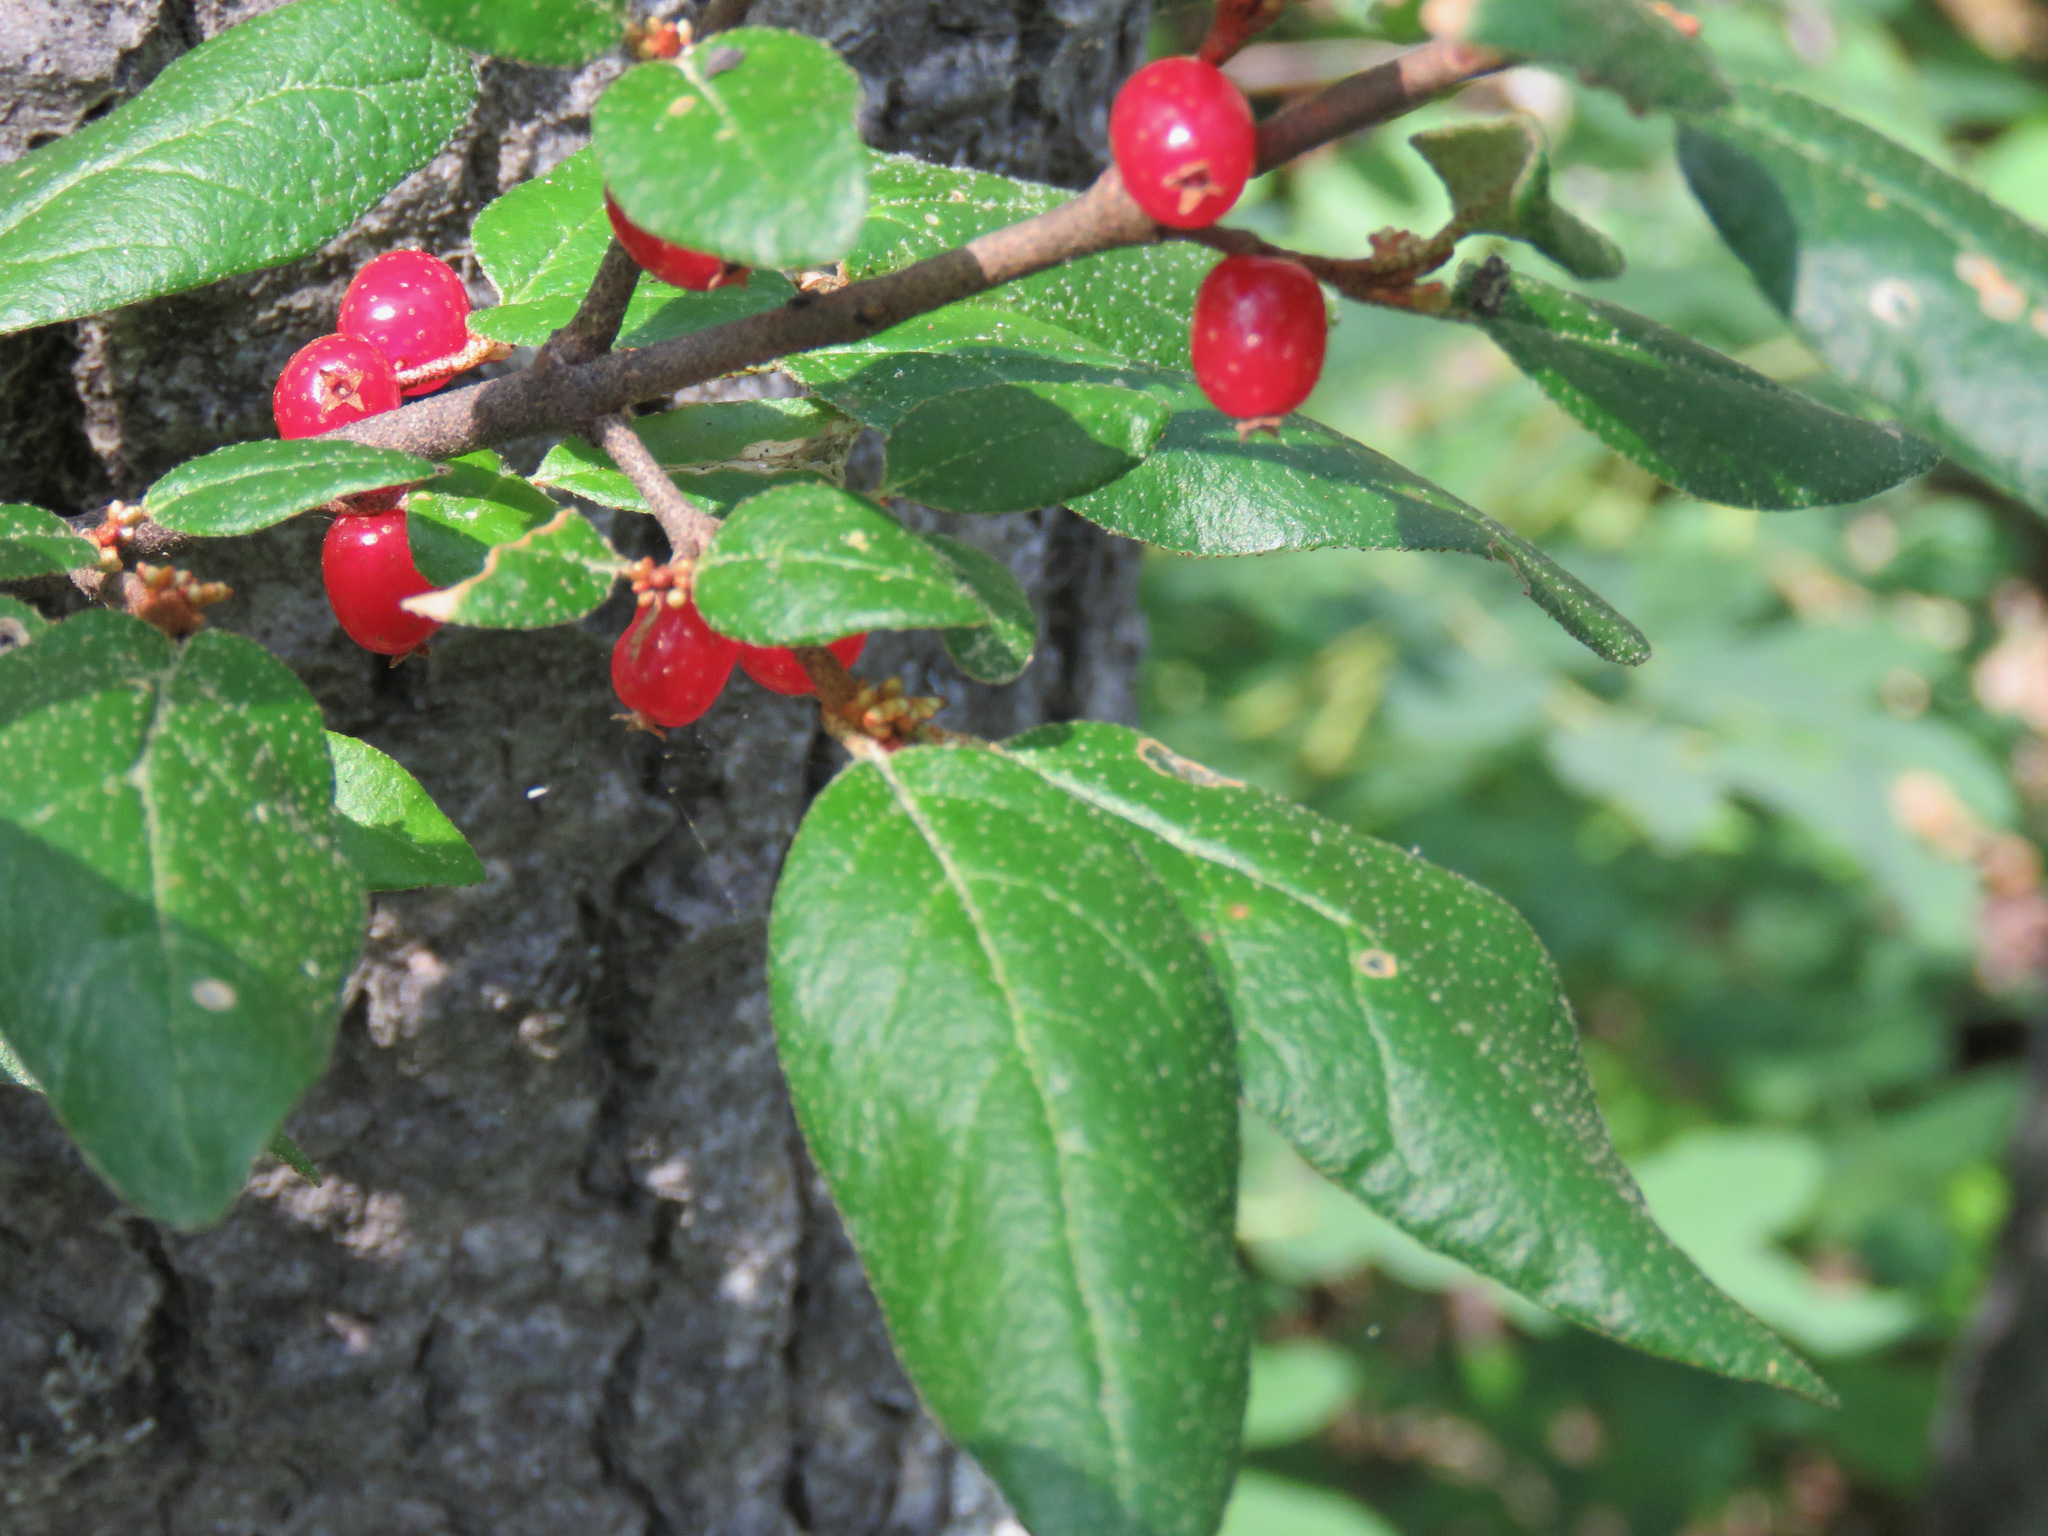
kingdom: Plantae
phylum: Tracheophyta
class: Magnoliopsida
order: Rosales
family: Elaeagnaceae
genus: Shepherdia
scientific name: Shepherdia canadensis
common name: Soapberry
